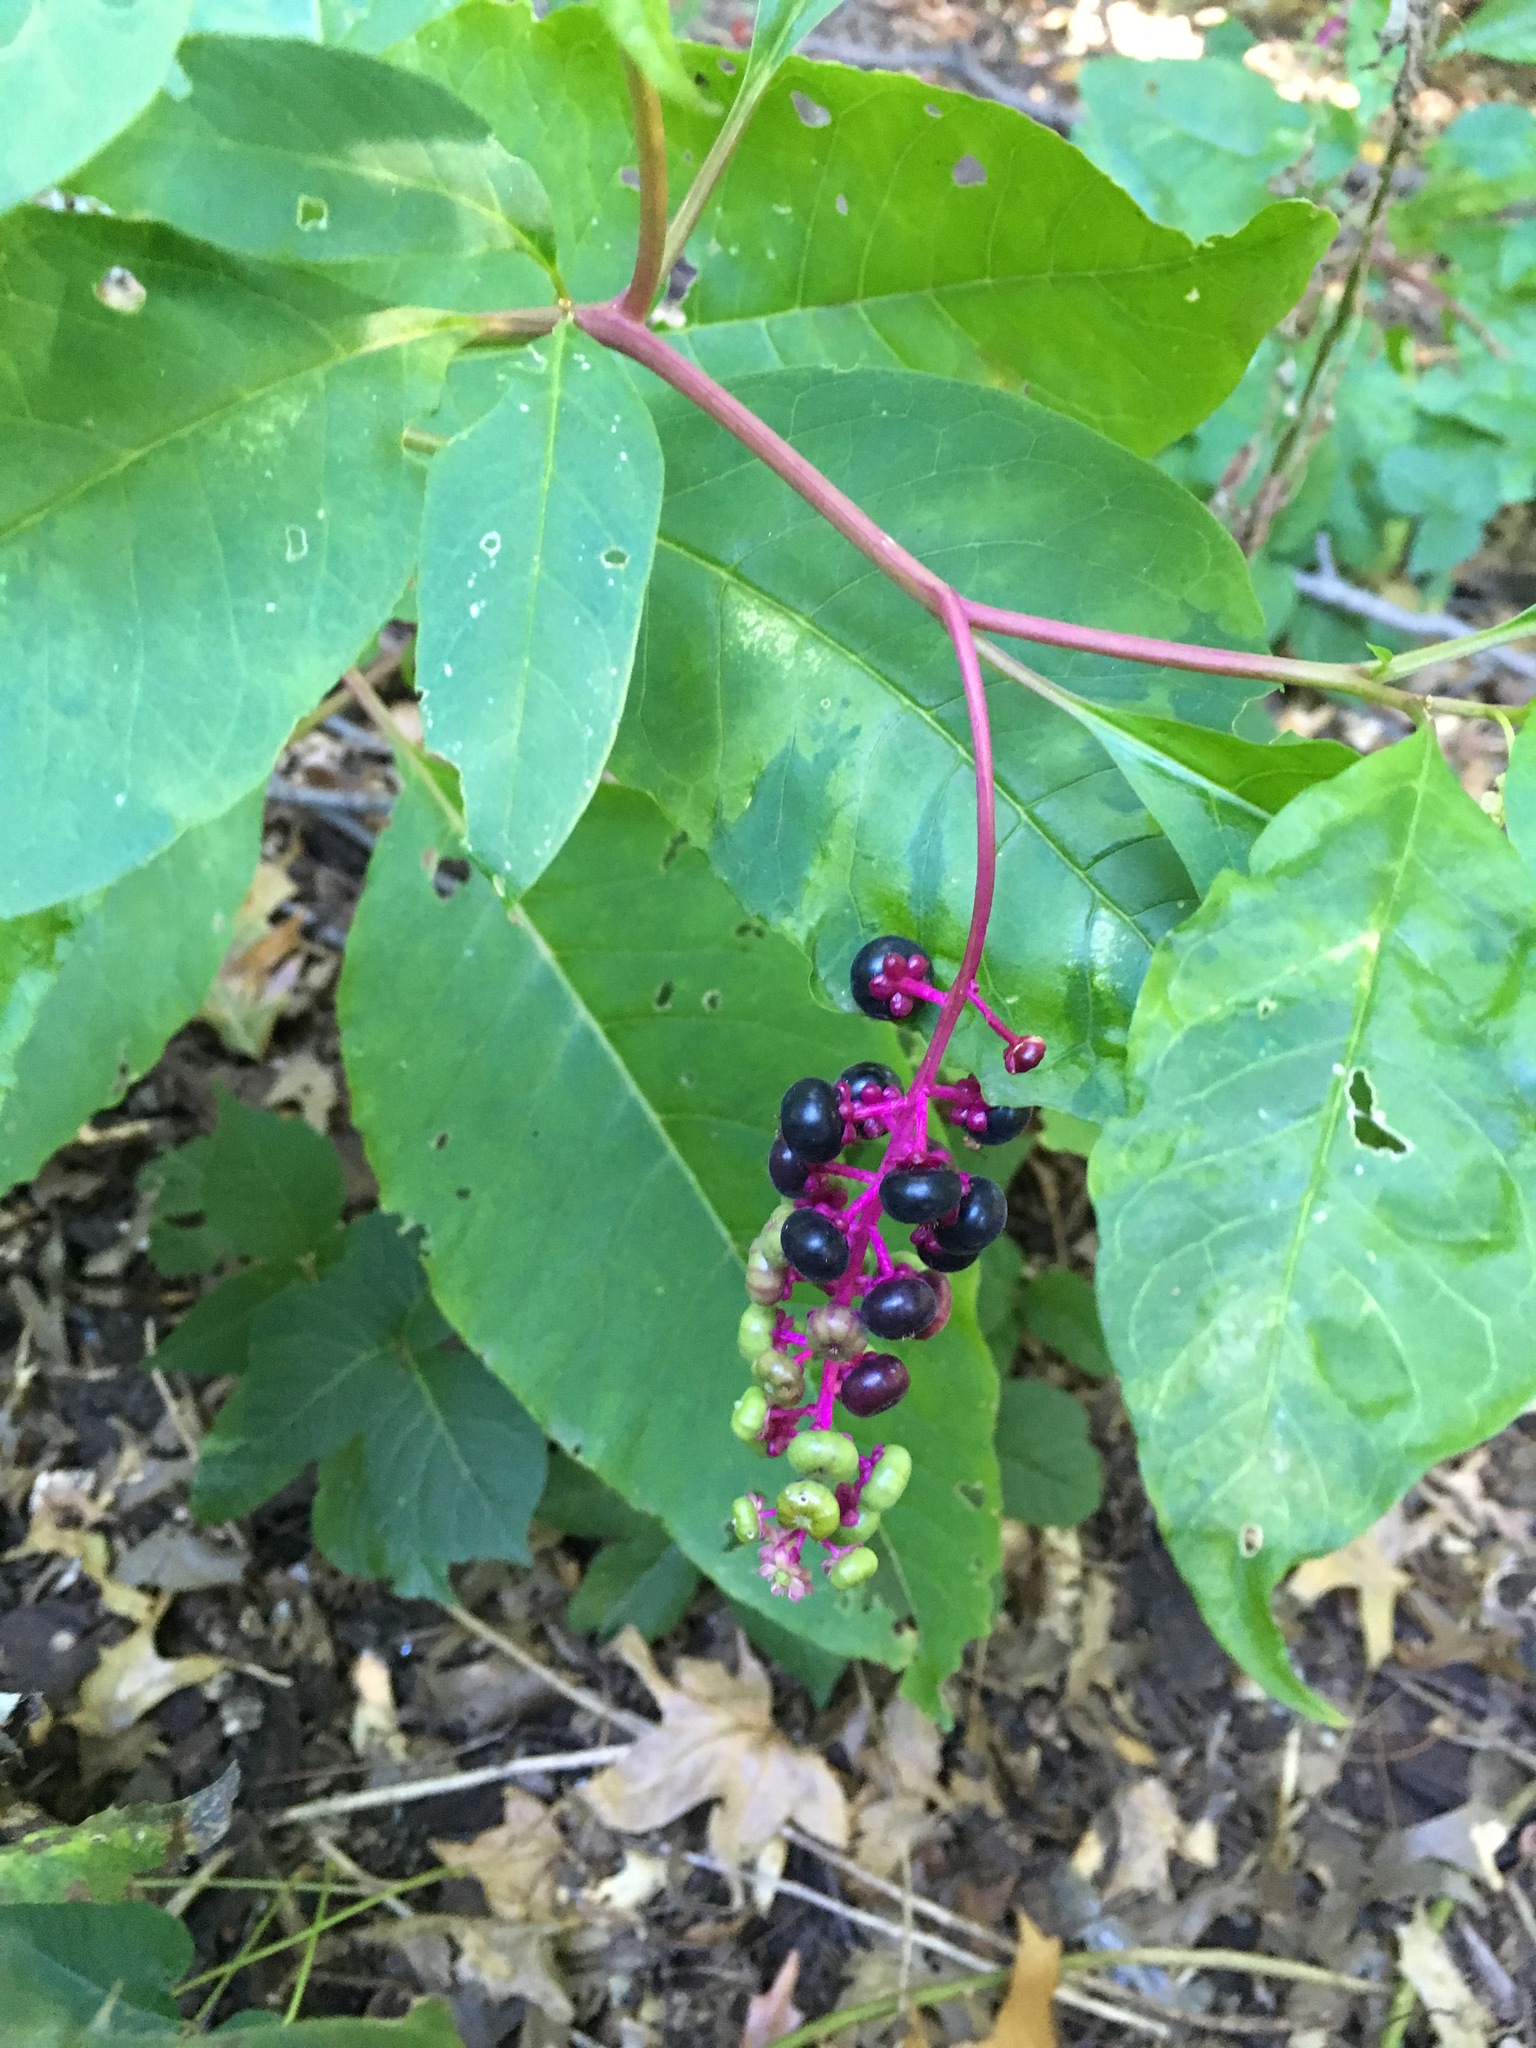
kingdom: Plantae
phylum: Tracheophyta
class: Magnoliopsida
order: Caryophyllales
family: Phytolaccaceae
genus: Phytolacca
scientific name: Phytolacca americana
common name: American pokeweed
